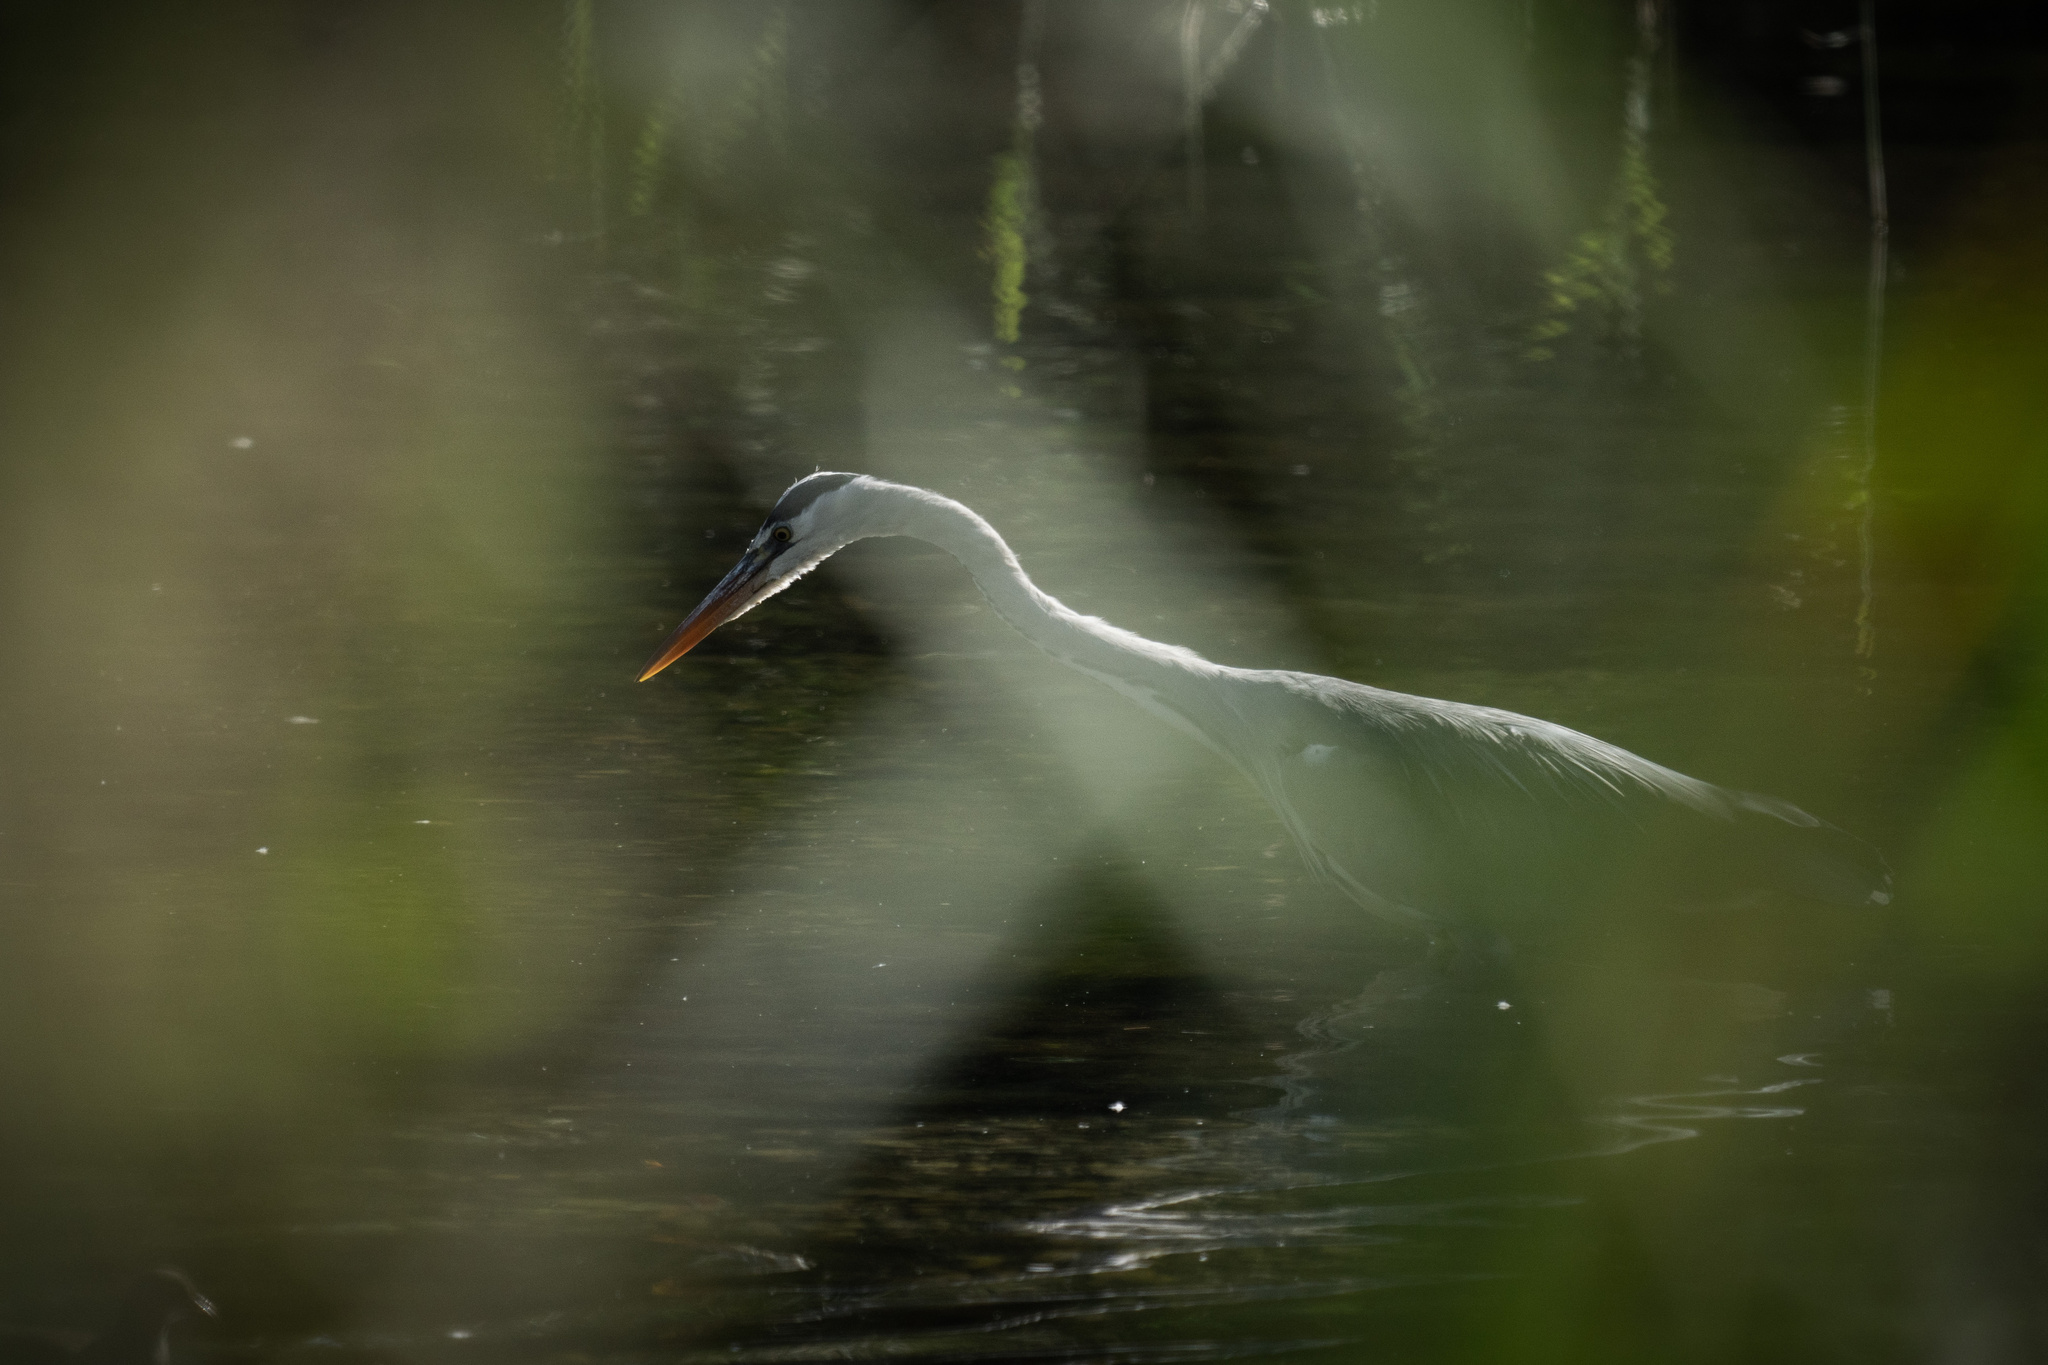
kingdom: Animalia
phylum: Chordata
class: Aves
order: Pelecaniformes
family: Ardeidae
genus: Ardea
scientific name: Ardea cinerea
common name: Grey heron
